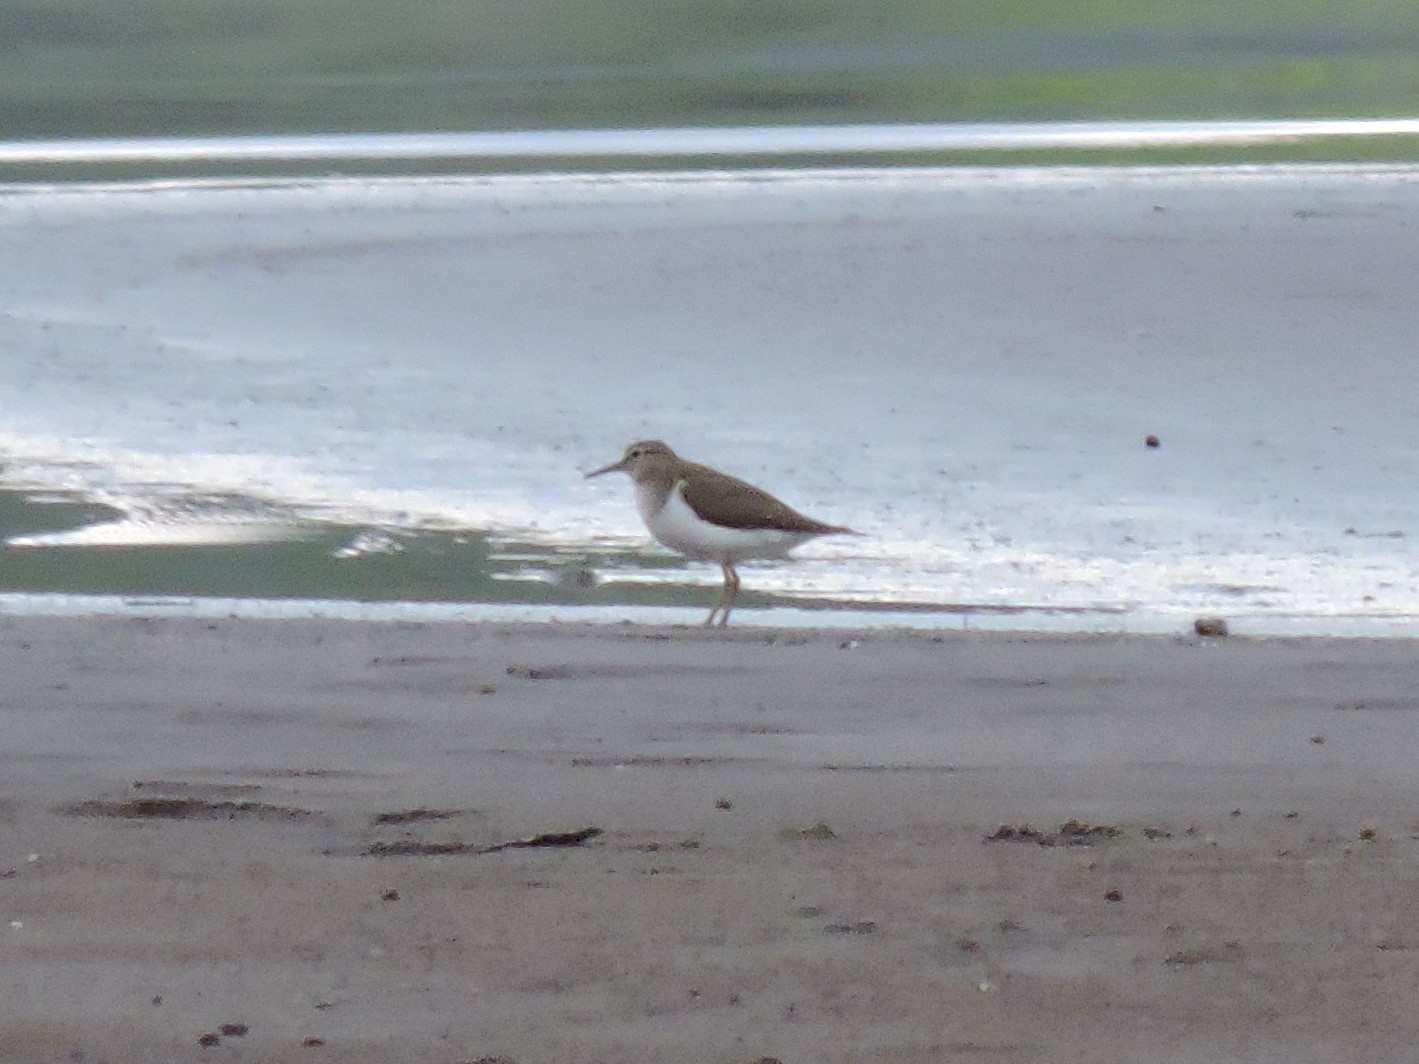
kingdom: Animalia
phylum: Chordata
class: Aves
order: Charadriiformes
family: Scolopacidae
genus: Actitis
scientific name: Actitis hypoleucos
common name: Common sandpiper
